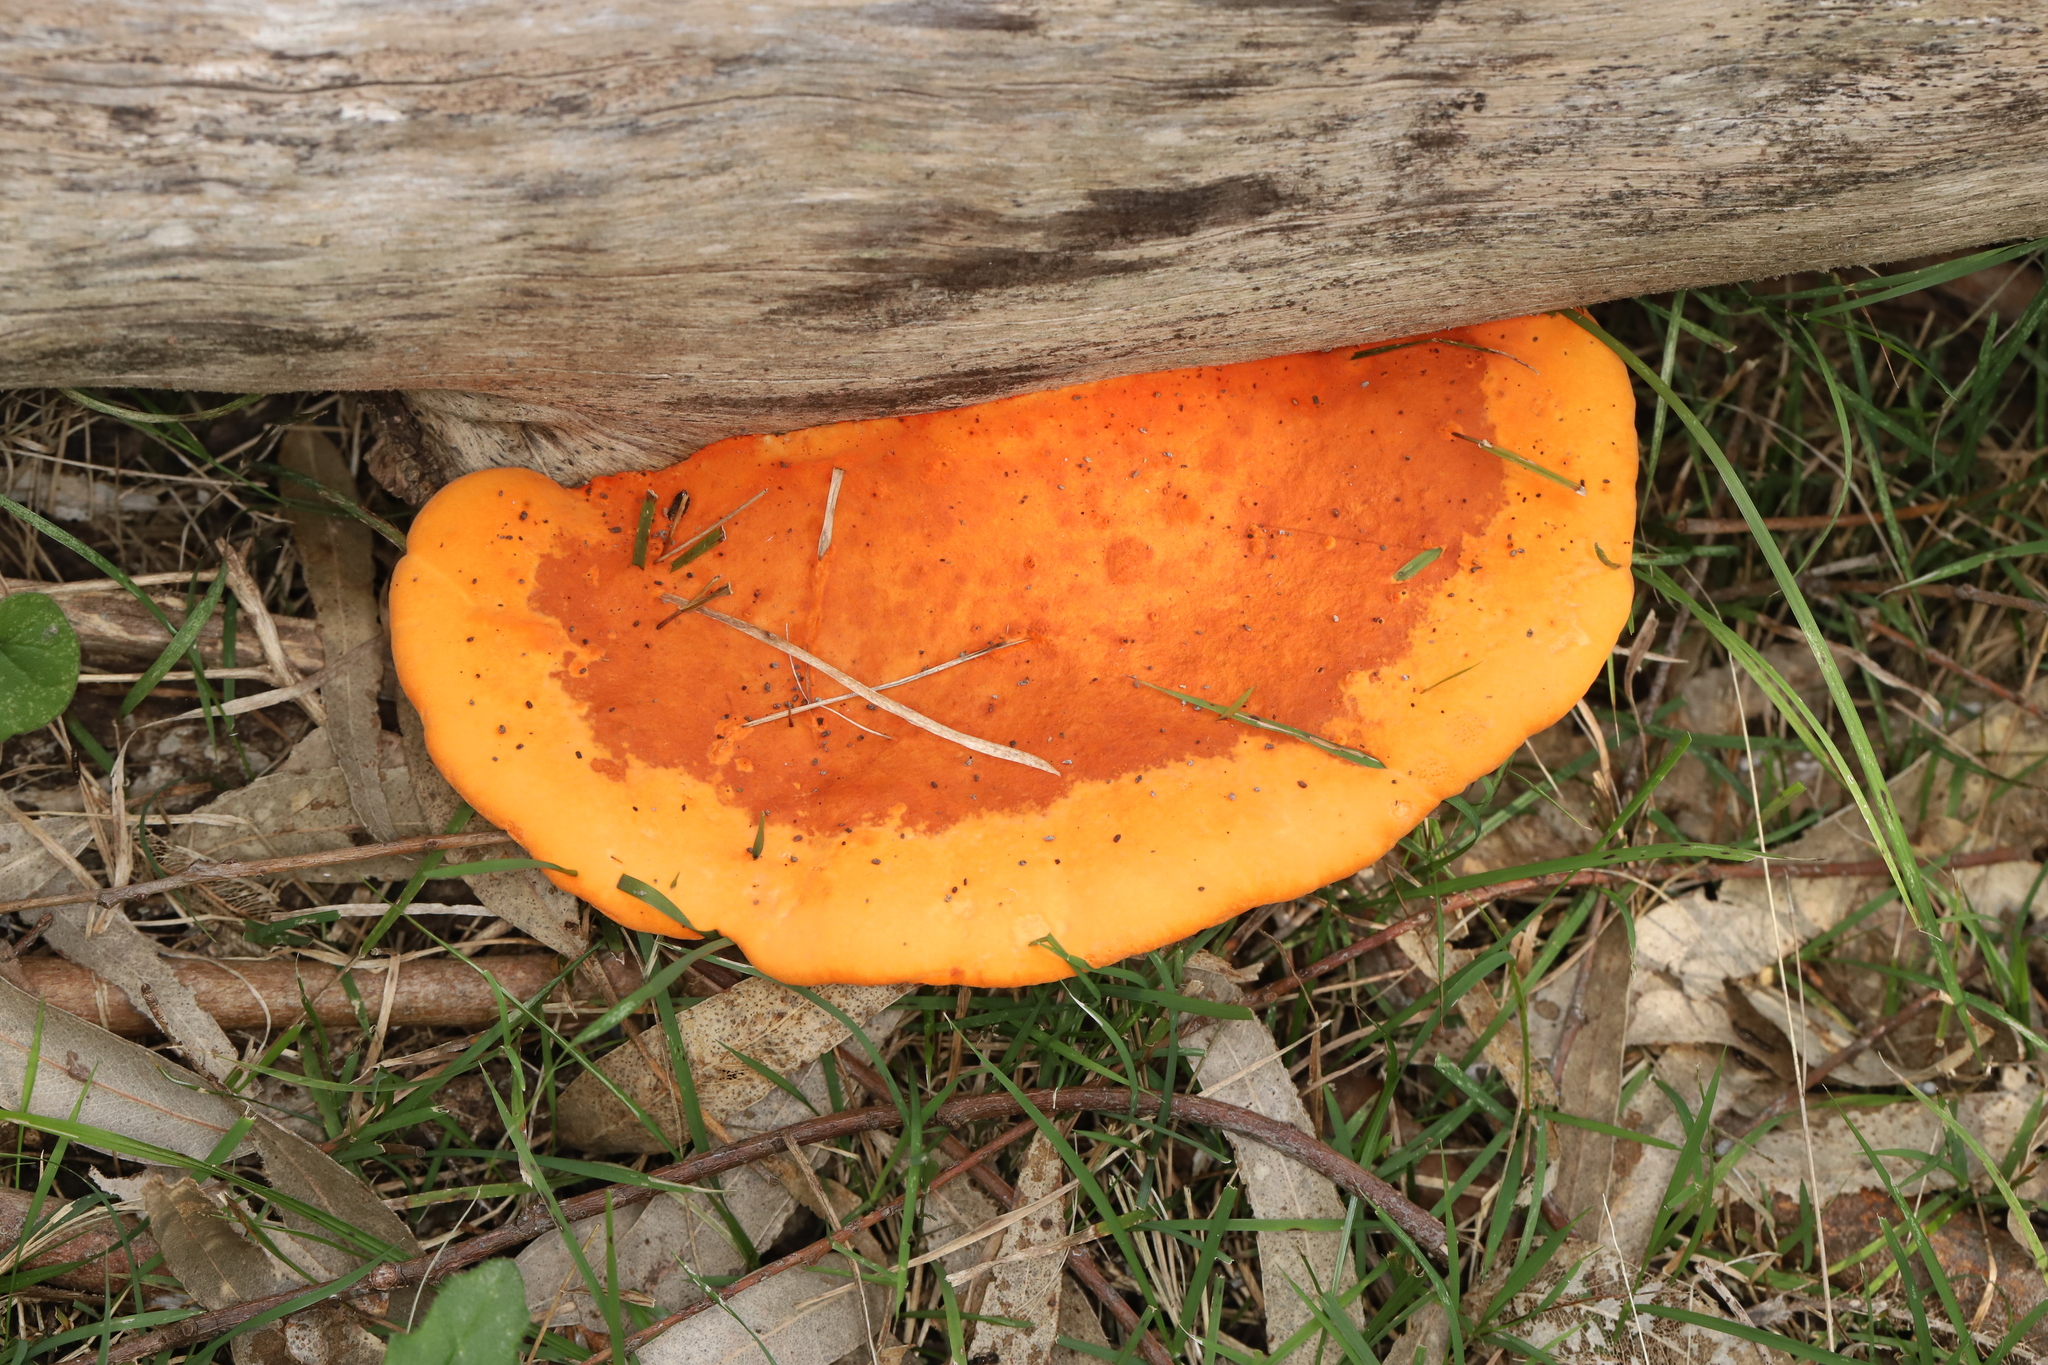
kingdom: Fungi
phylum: Basidiomycota
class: Agaricomycetes
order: Polyporales
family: Polyporaceae
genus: Trametes
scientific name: Trametes coccinea
